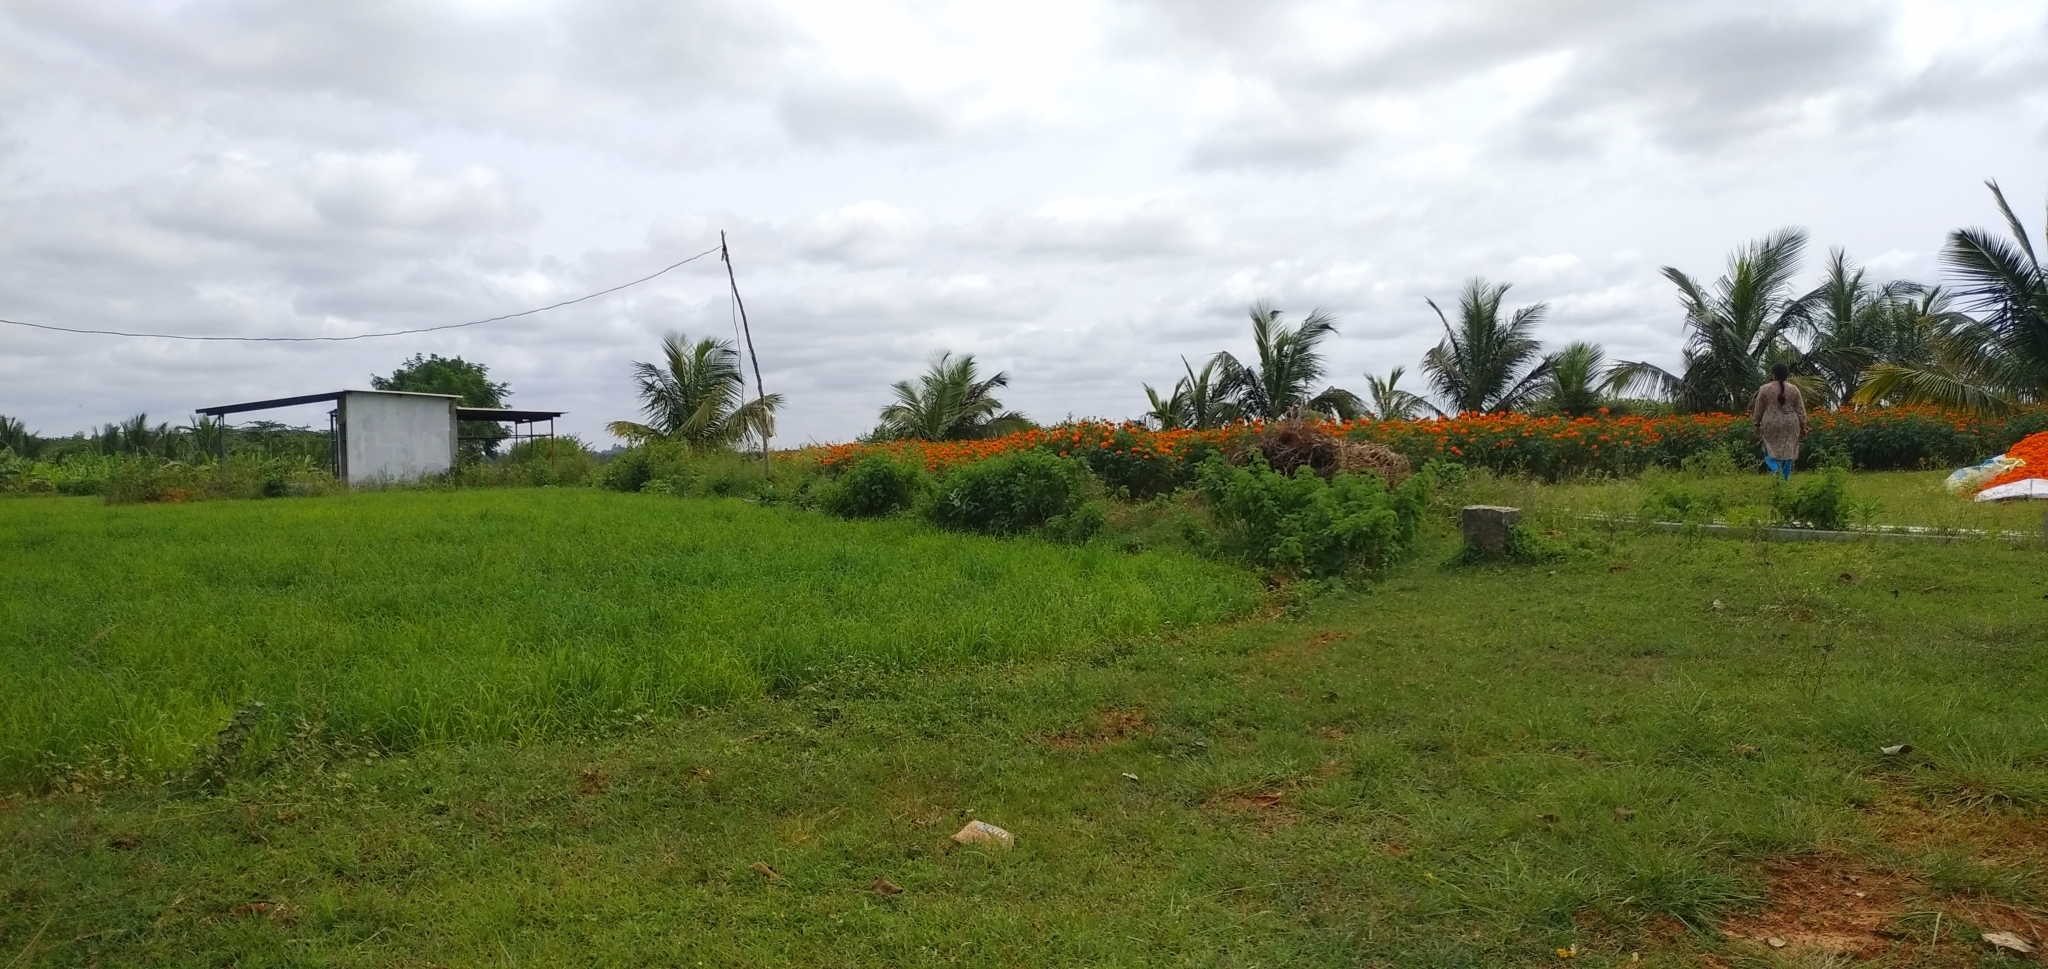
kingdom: Plantae
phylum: Tracheophyta
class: Magnoliopsida
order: Asterales
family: Asteraceae
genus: Tagetes
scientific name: Tagetes erecta
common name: African marigold
